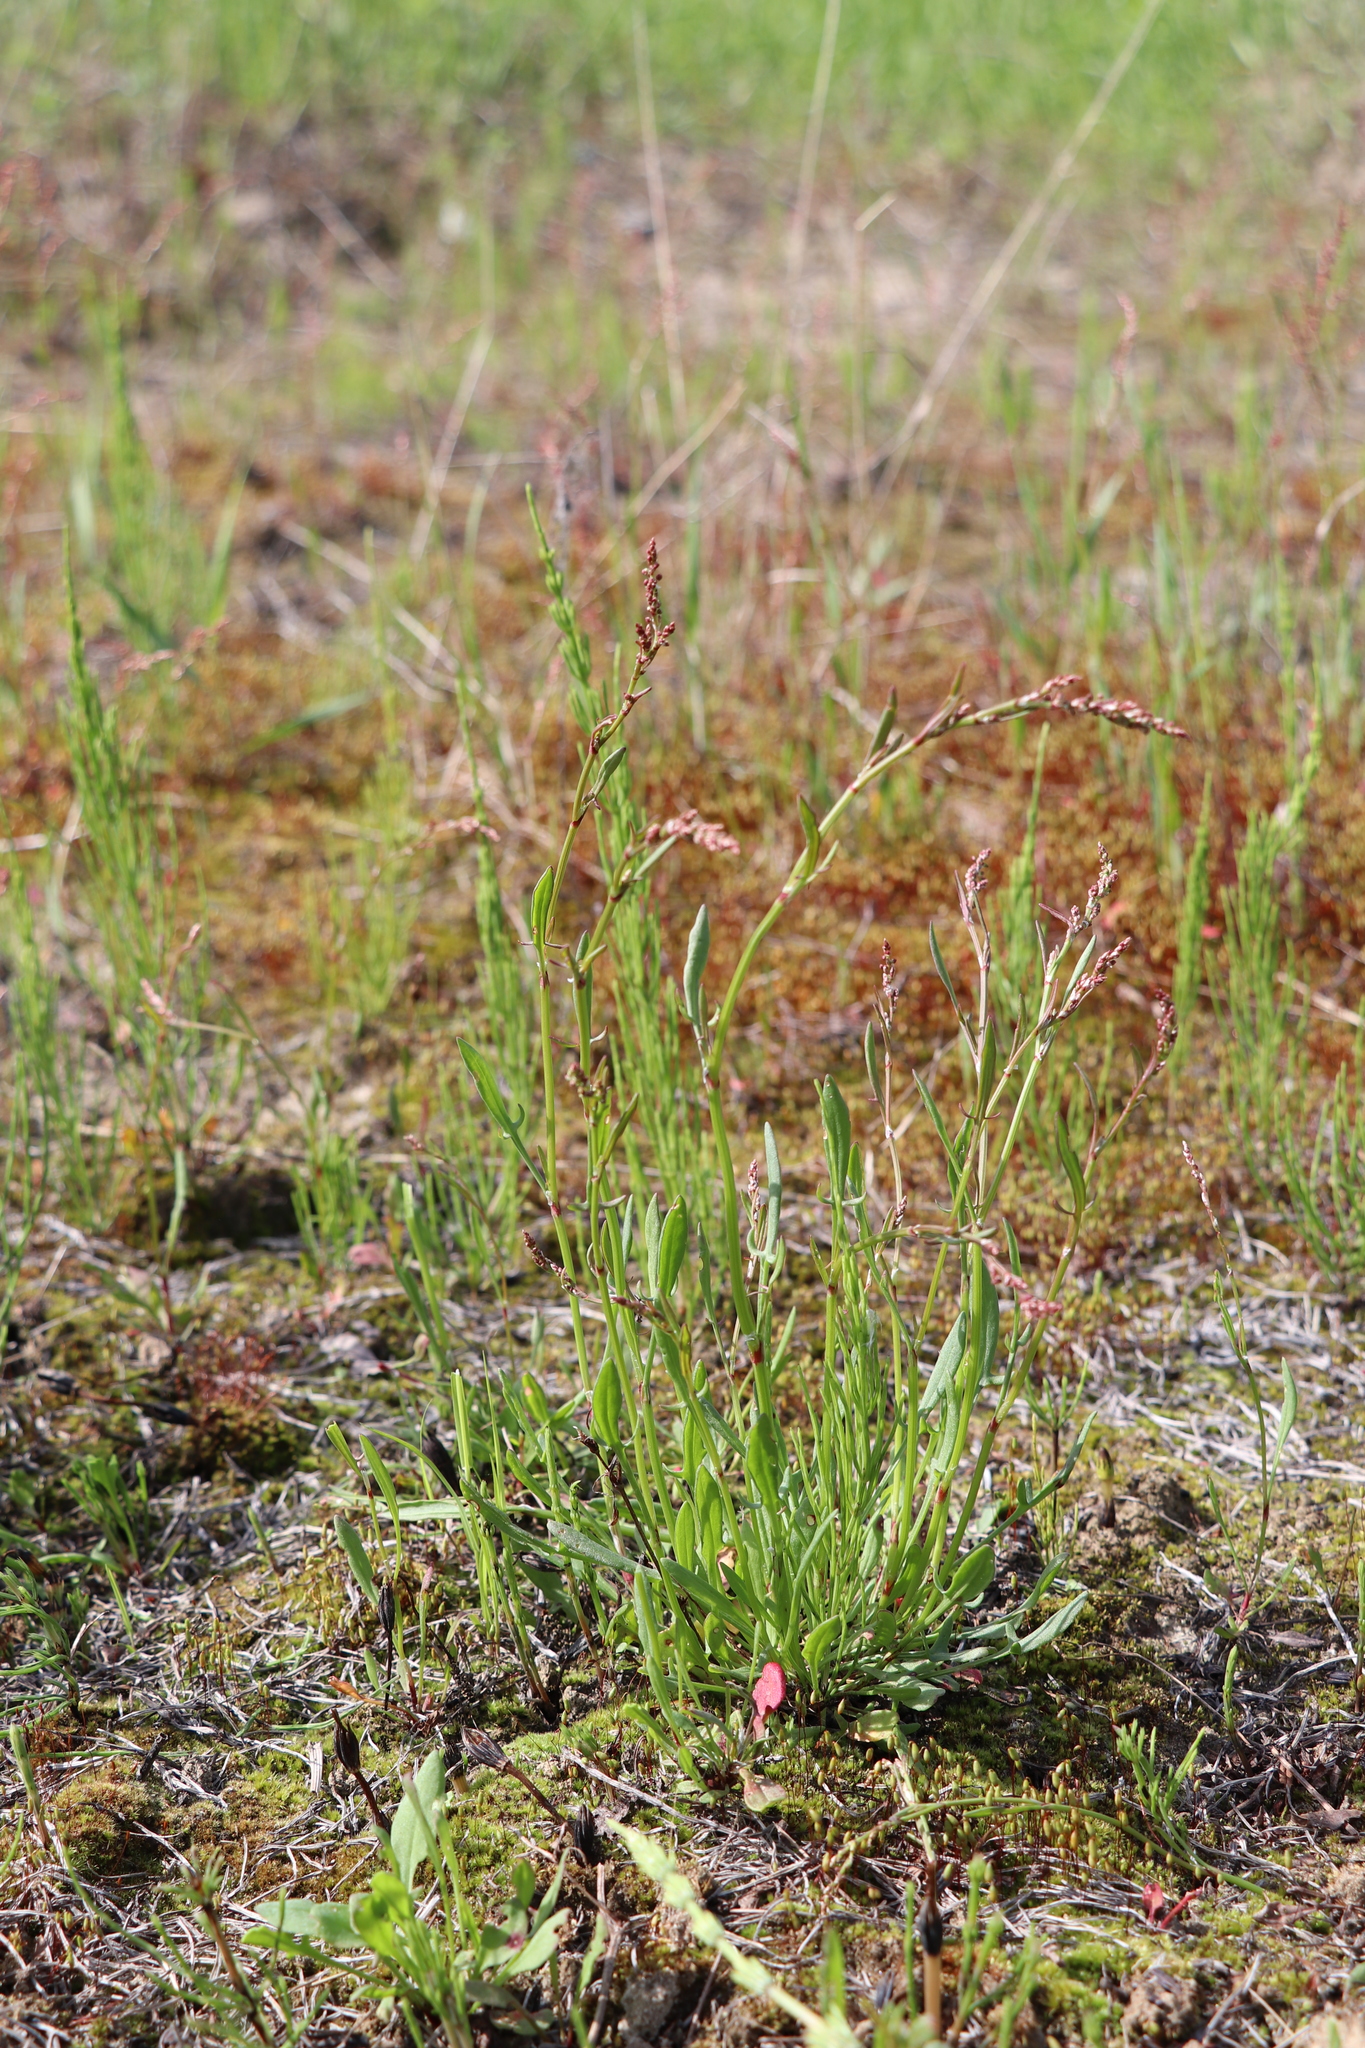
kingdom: Plantae
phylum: Tracheophyta
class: Magnoliopsida
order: Caryophyllales
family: Polygonaceae
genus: Rumex
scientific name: Rumex acetosella
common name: Common sheep sorrel
